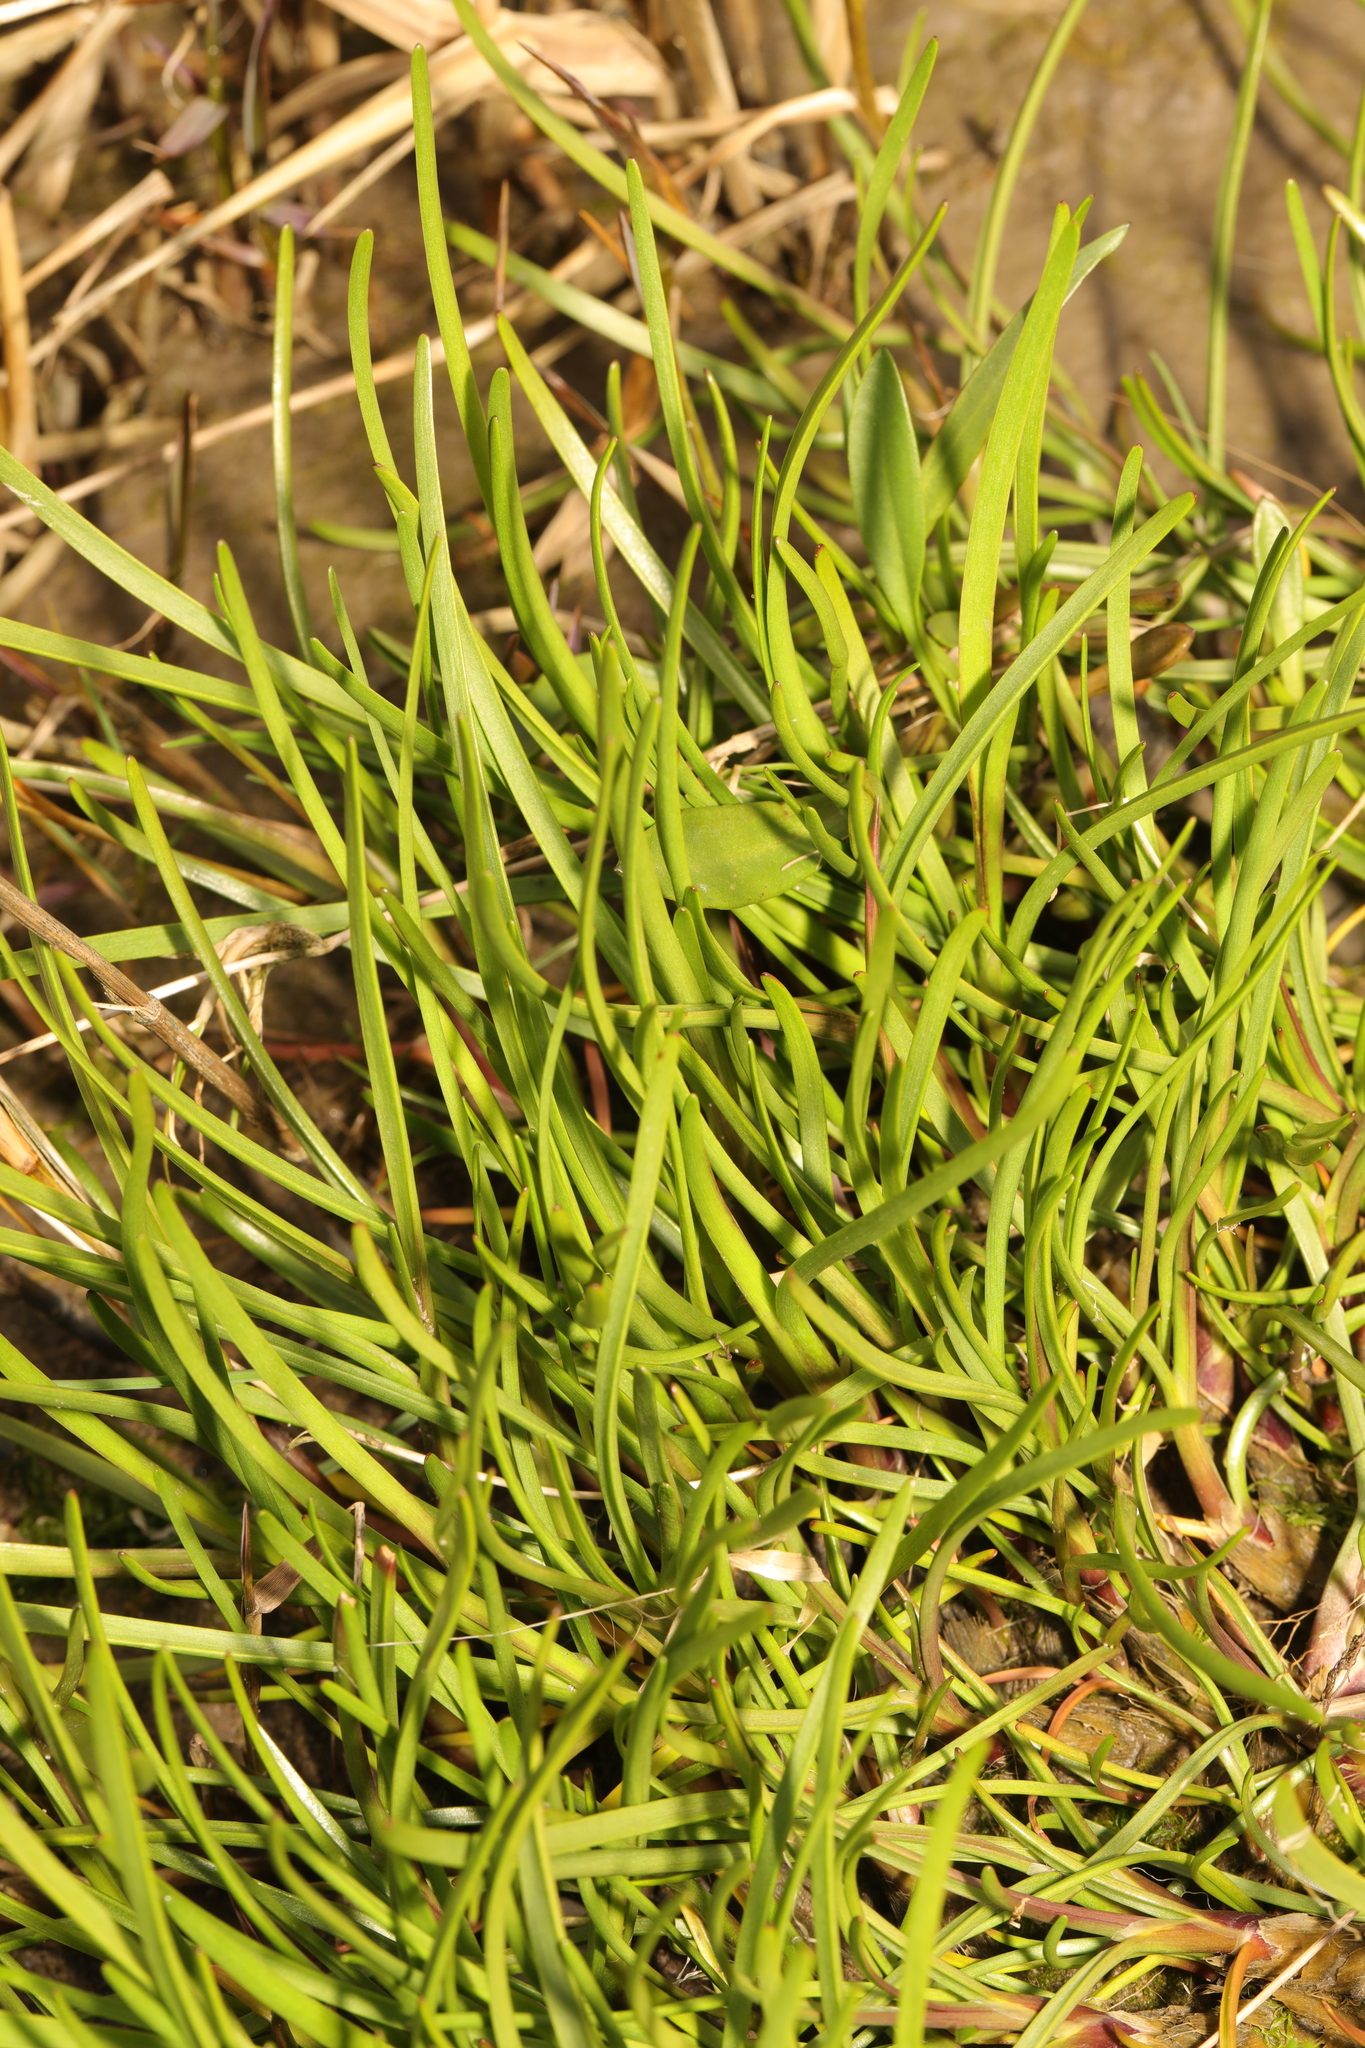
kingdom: Plantae
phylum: Tracheophyta
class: Magnoliopsida
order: Lamiales
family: Plantaginaceae
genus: Plantago
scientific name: Plantago maritima
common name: Sea plantain
